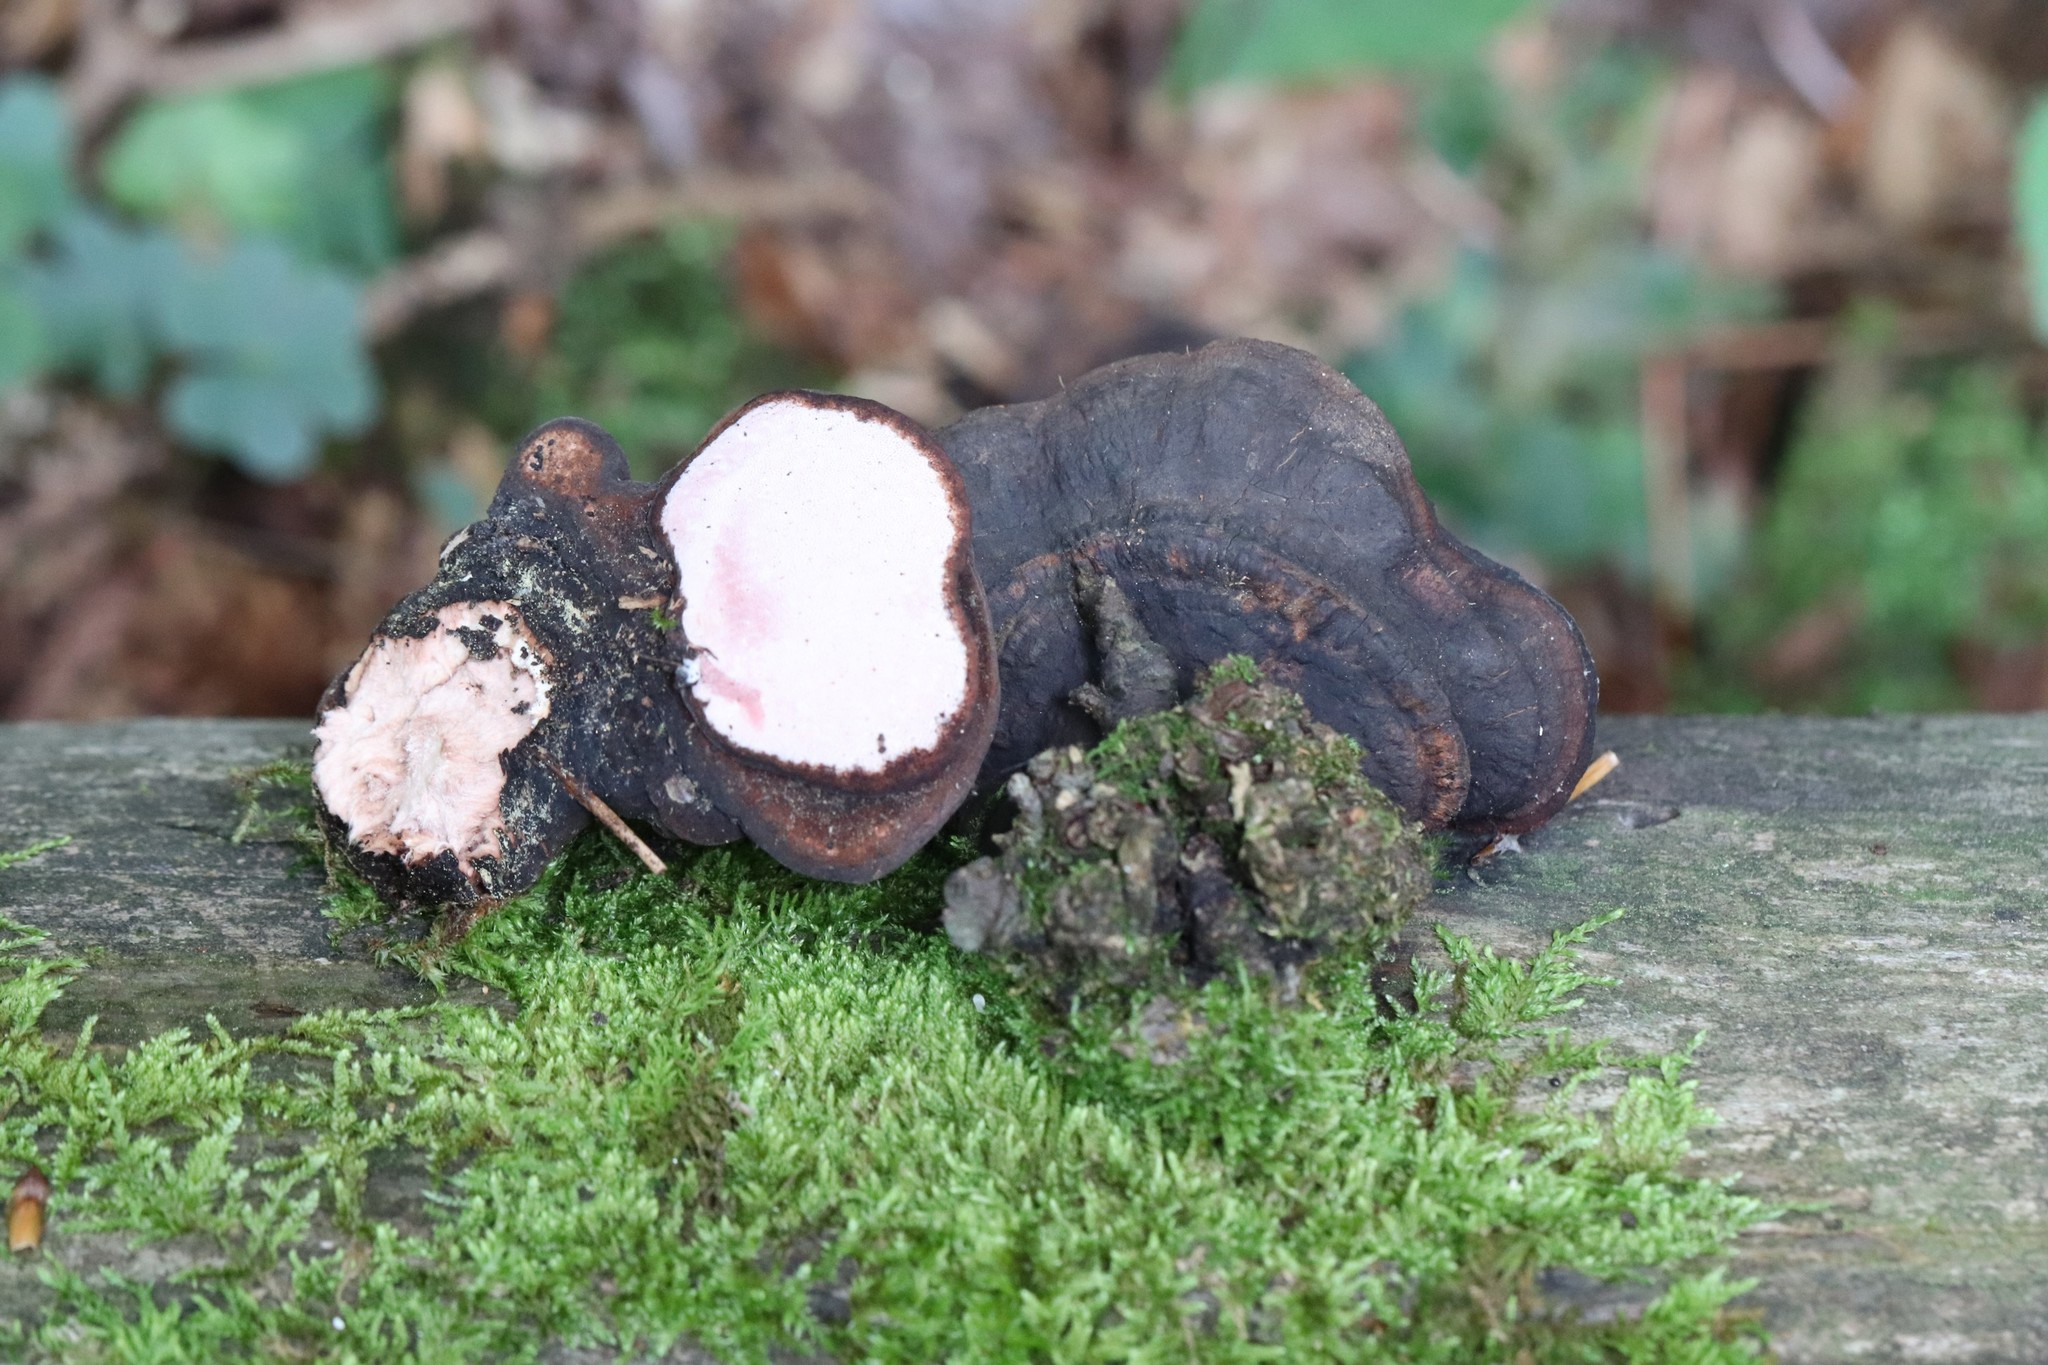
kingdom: Fungi
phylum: Basidiomycota
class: Agaricomycetes
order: Polyporales
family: Fomitopsidaceae
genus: Rhodofomes
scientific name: Rhodofomes roseus
